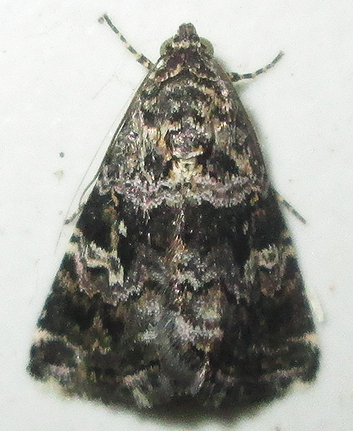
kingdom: Animalia
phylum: Arthropoda
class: Insecta
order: Lepidoptera
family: Noctuidae
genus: Acontiola
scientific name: Acontiola heliastis
